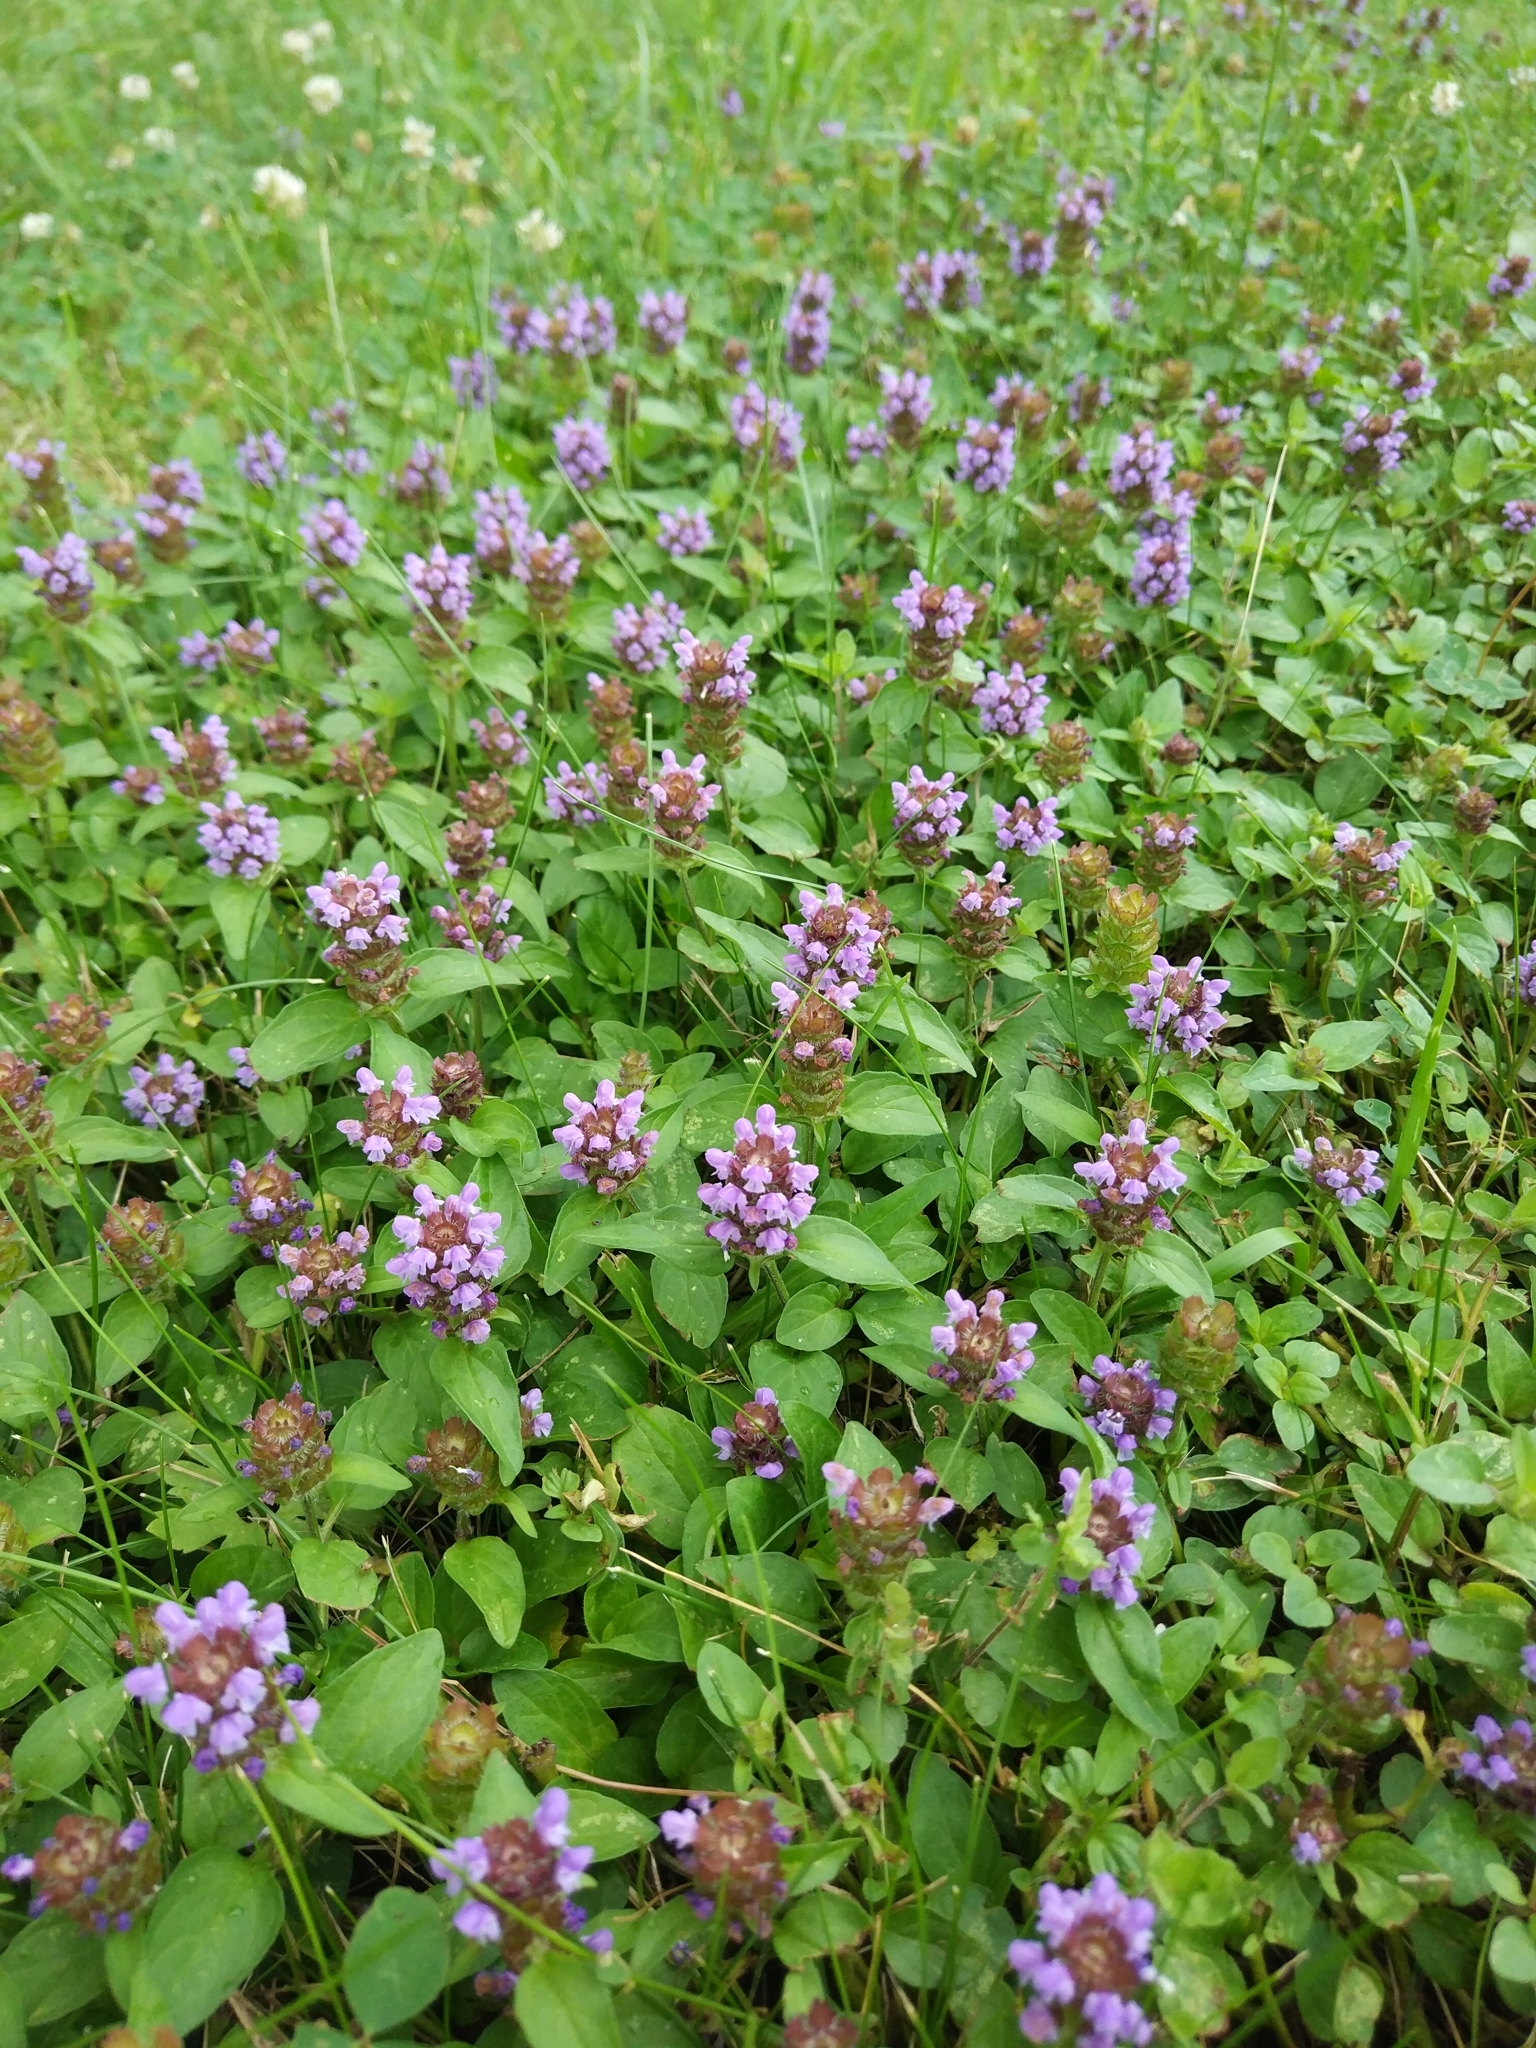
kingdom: Plantae
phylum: Tracheophyta
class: Magnoliopsida
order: Lamiales
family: Lamiaceae
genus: Prunella
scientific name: Prunella vulgaris
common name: Heal-all
